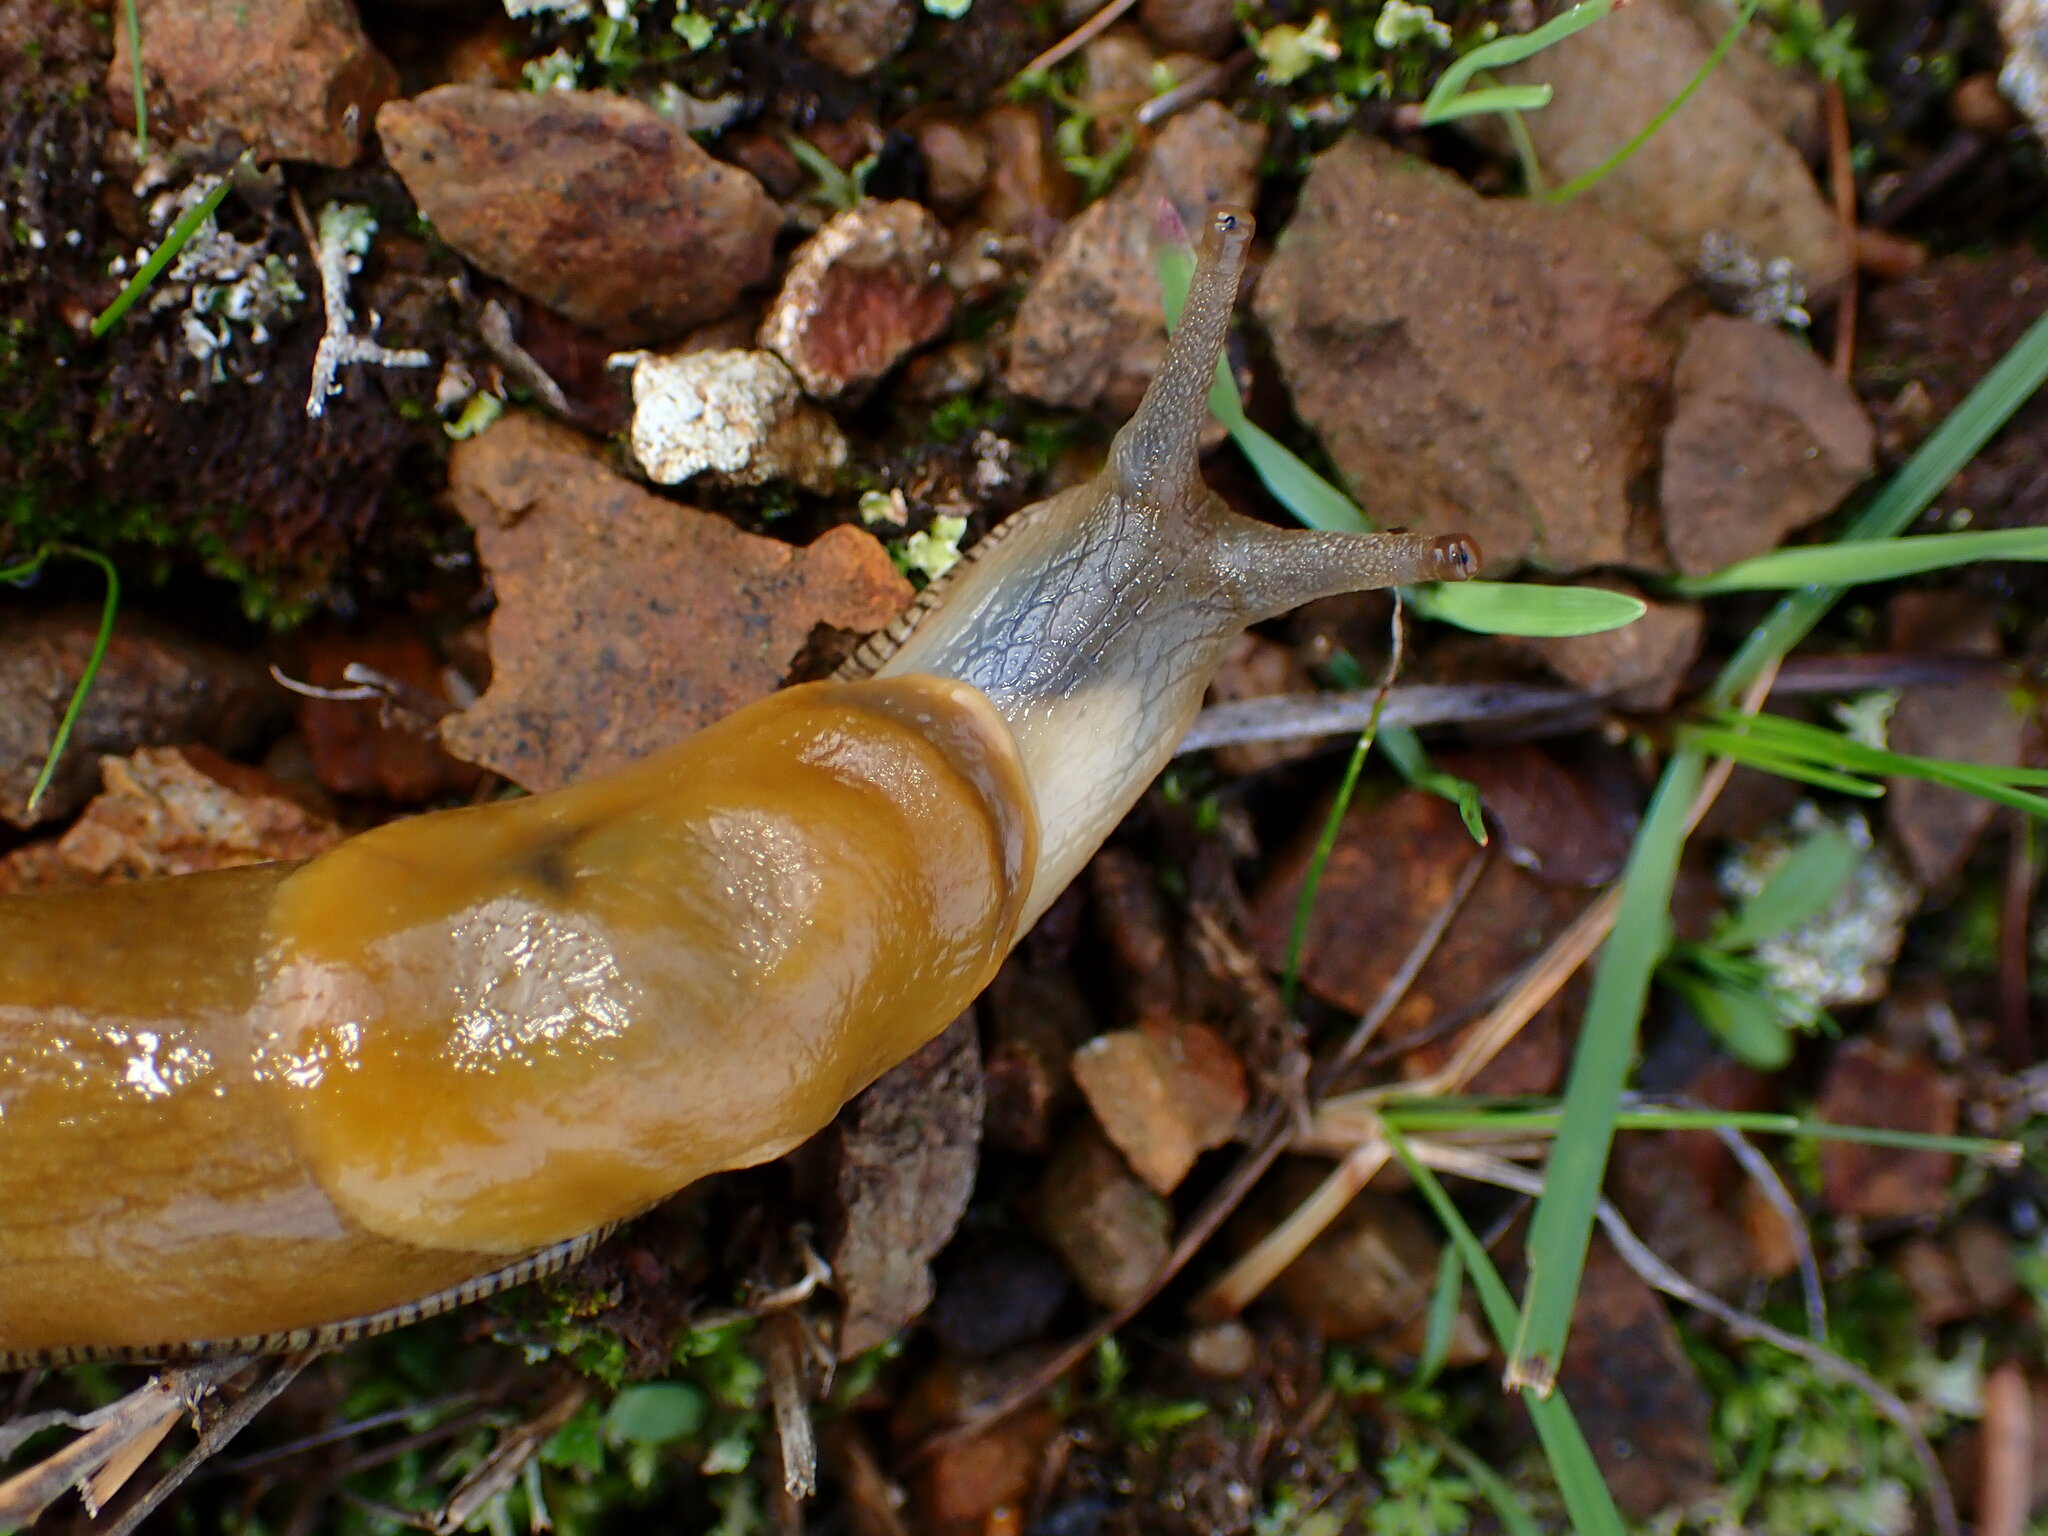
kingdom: Animalia
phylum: Mollusca
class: Gastropoda
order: Stylommatophora
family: Ariolimacidae
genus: Ariolimax
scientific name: Ariolimax brachyphallus
